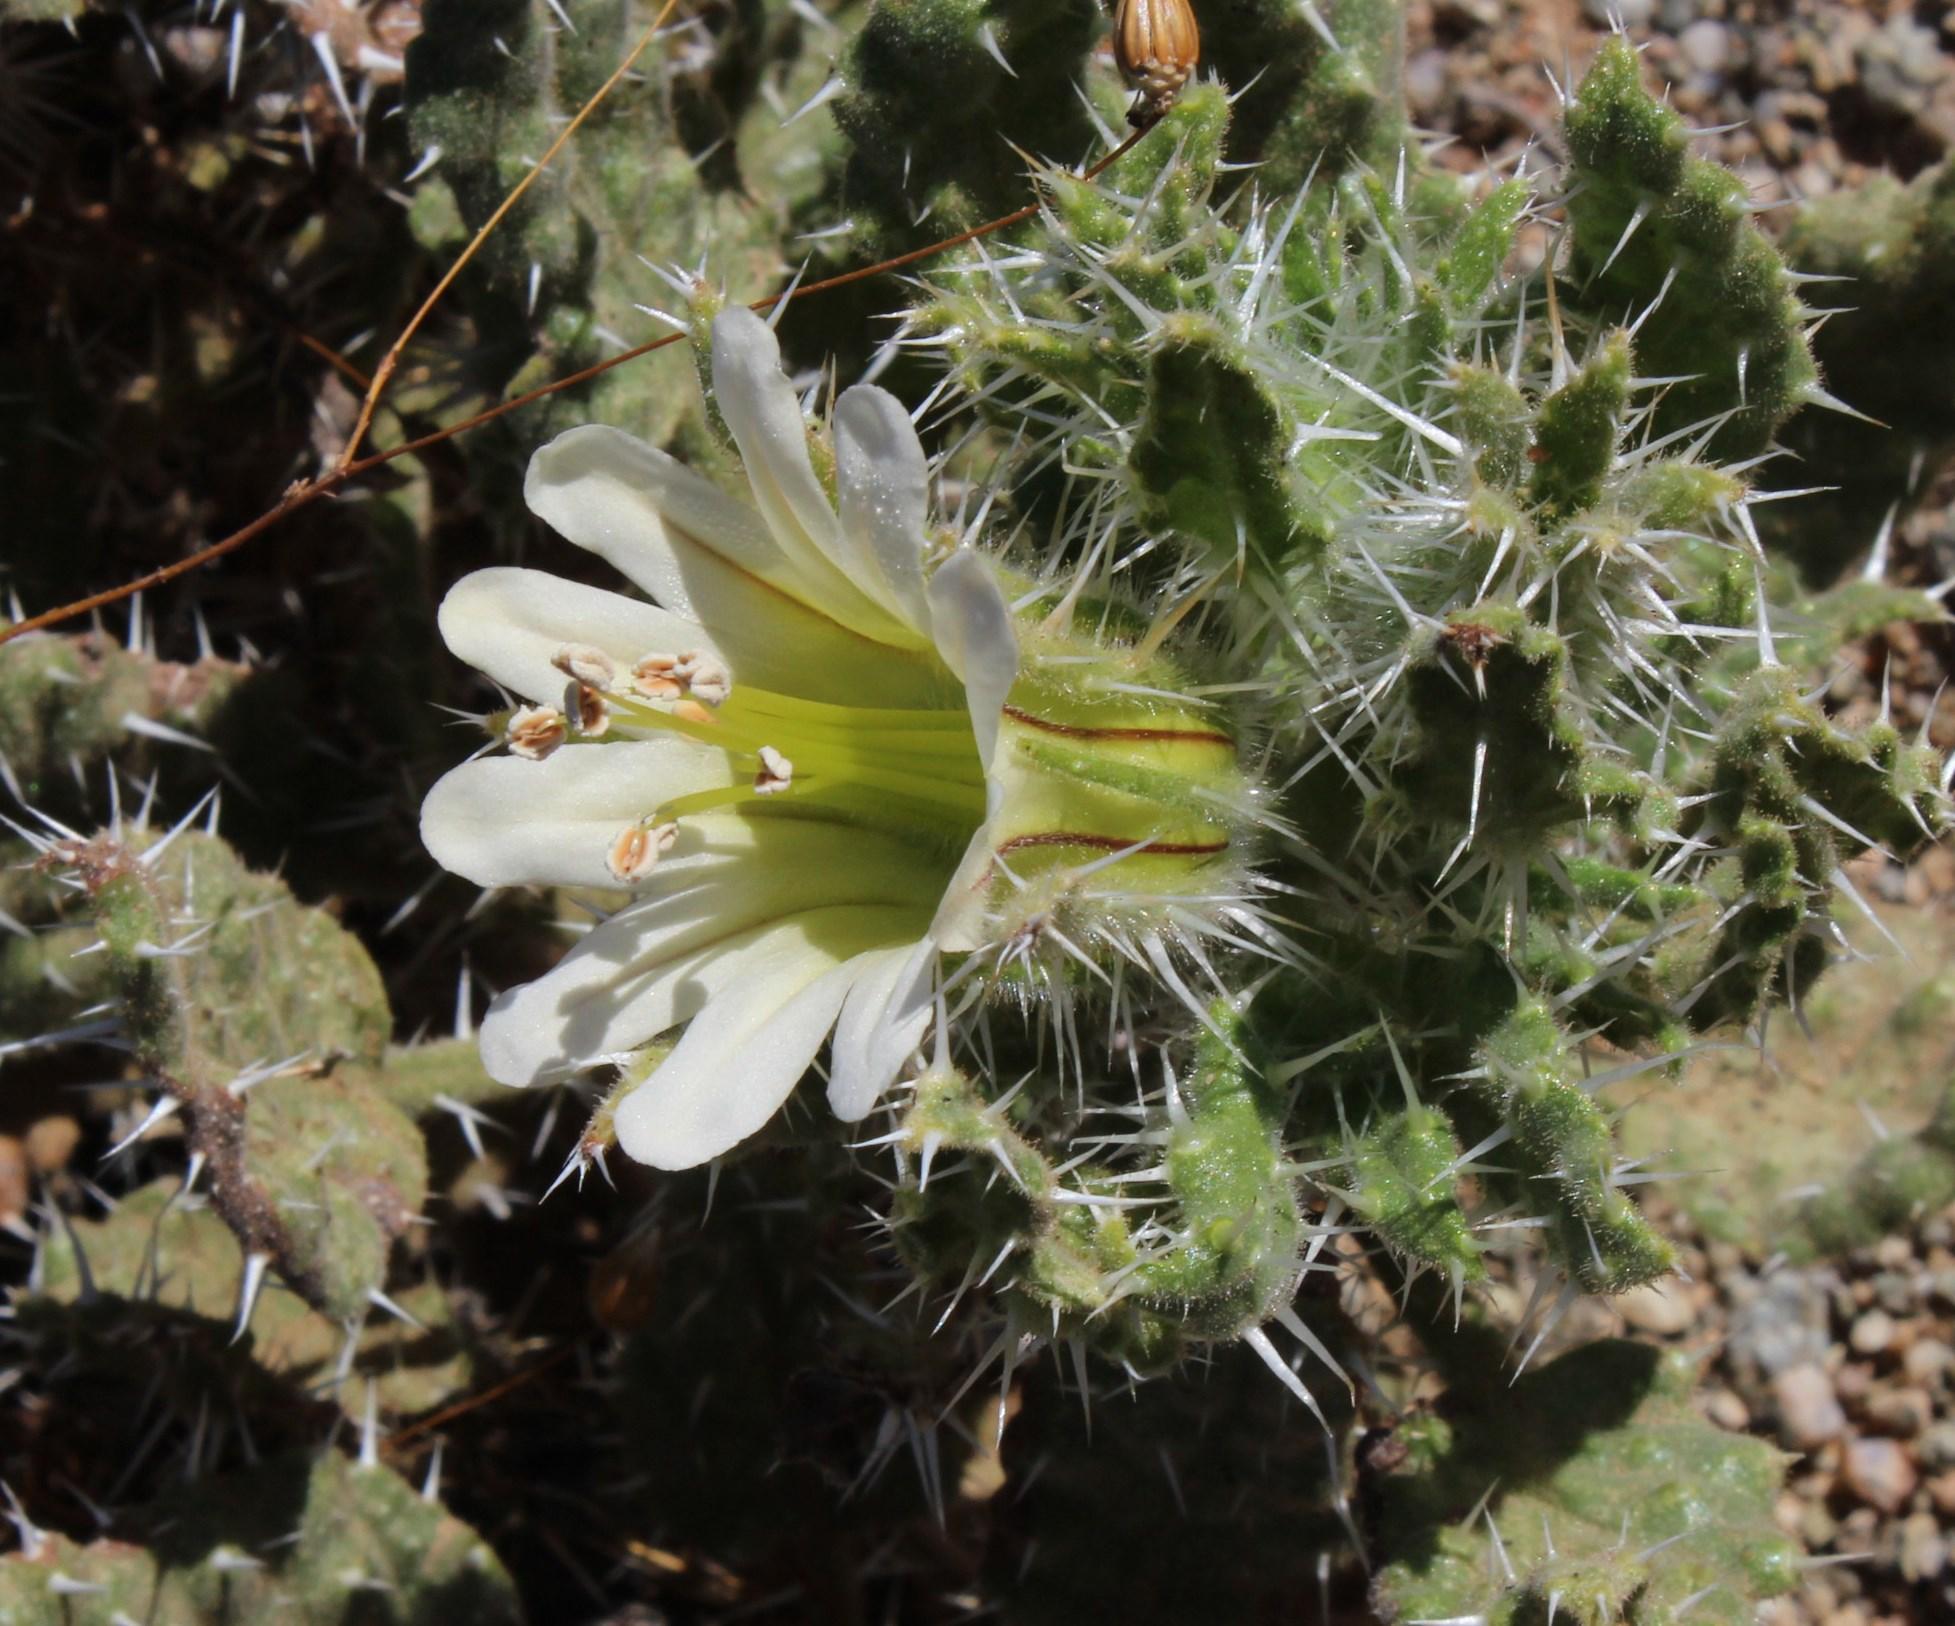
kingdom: Plantae
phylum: Tracheophyta
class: Magnoliopsida
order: Boraginales
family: Boraginaceae
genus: Codon
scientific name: Codon royenii
